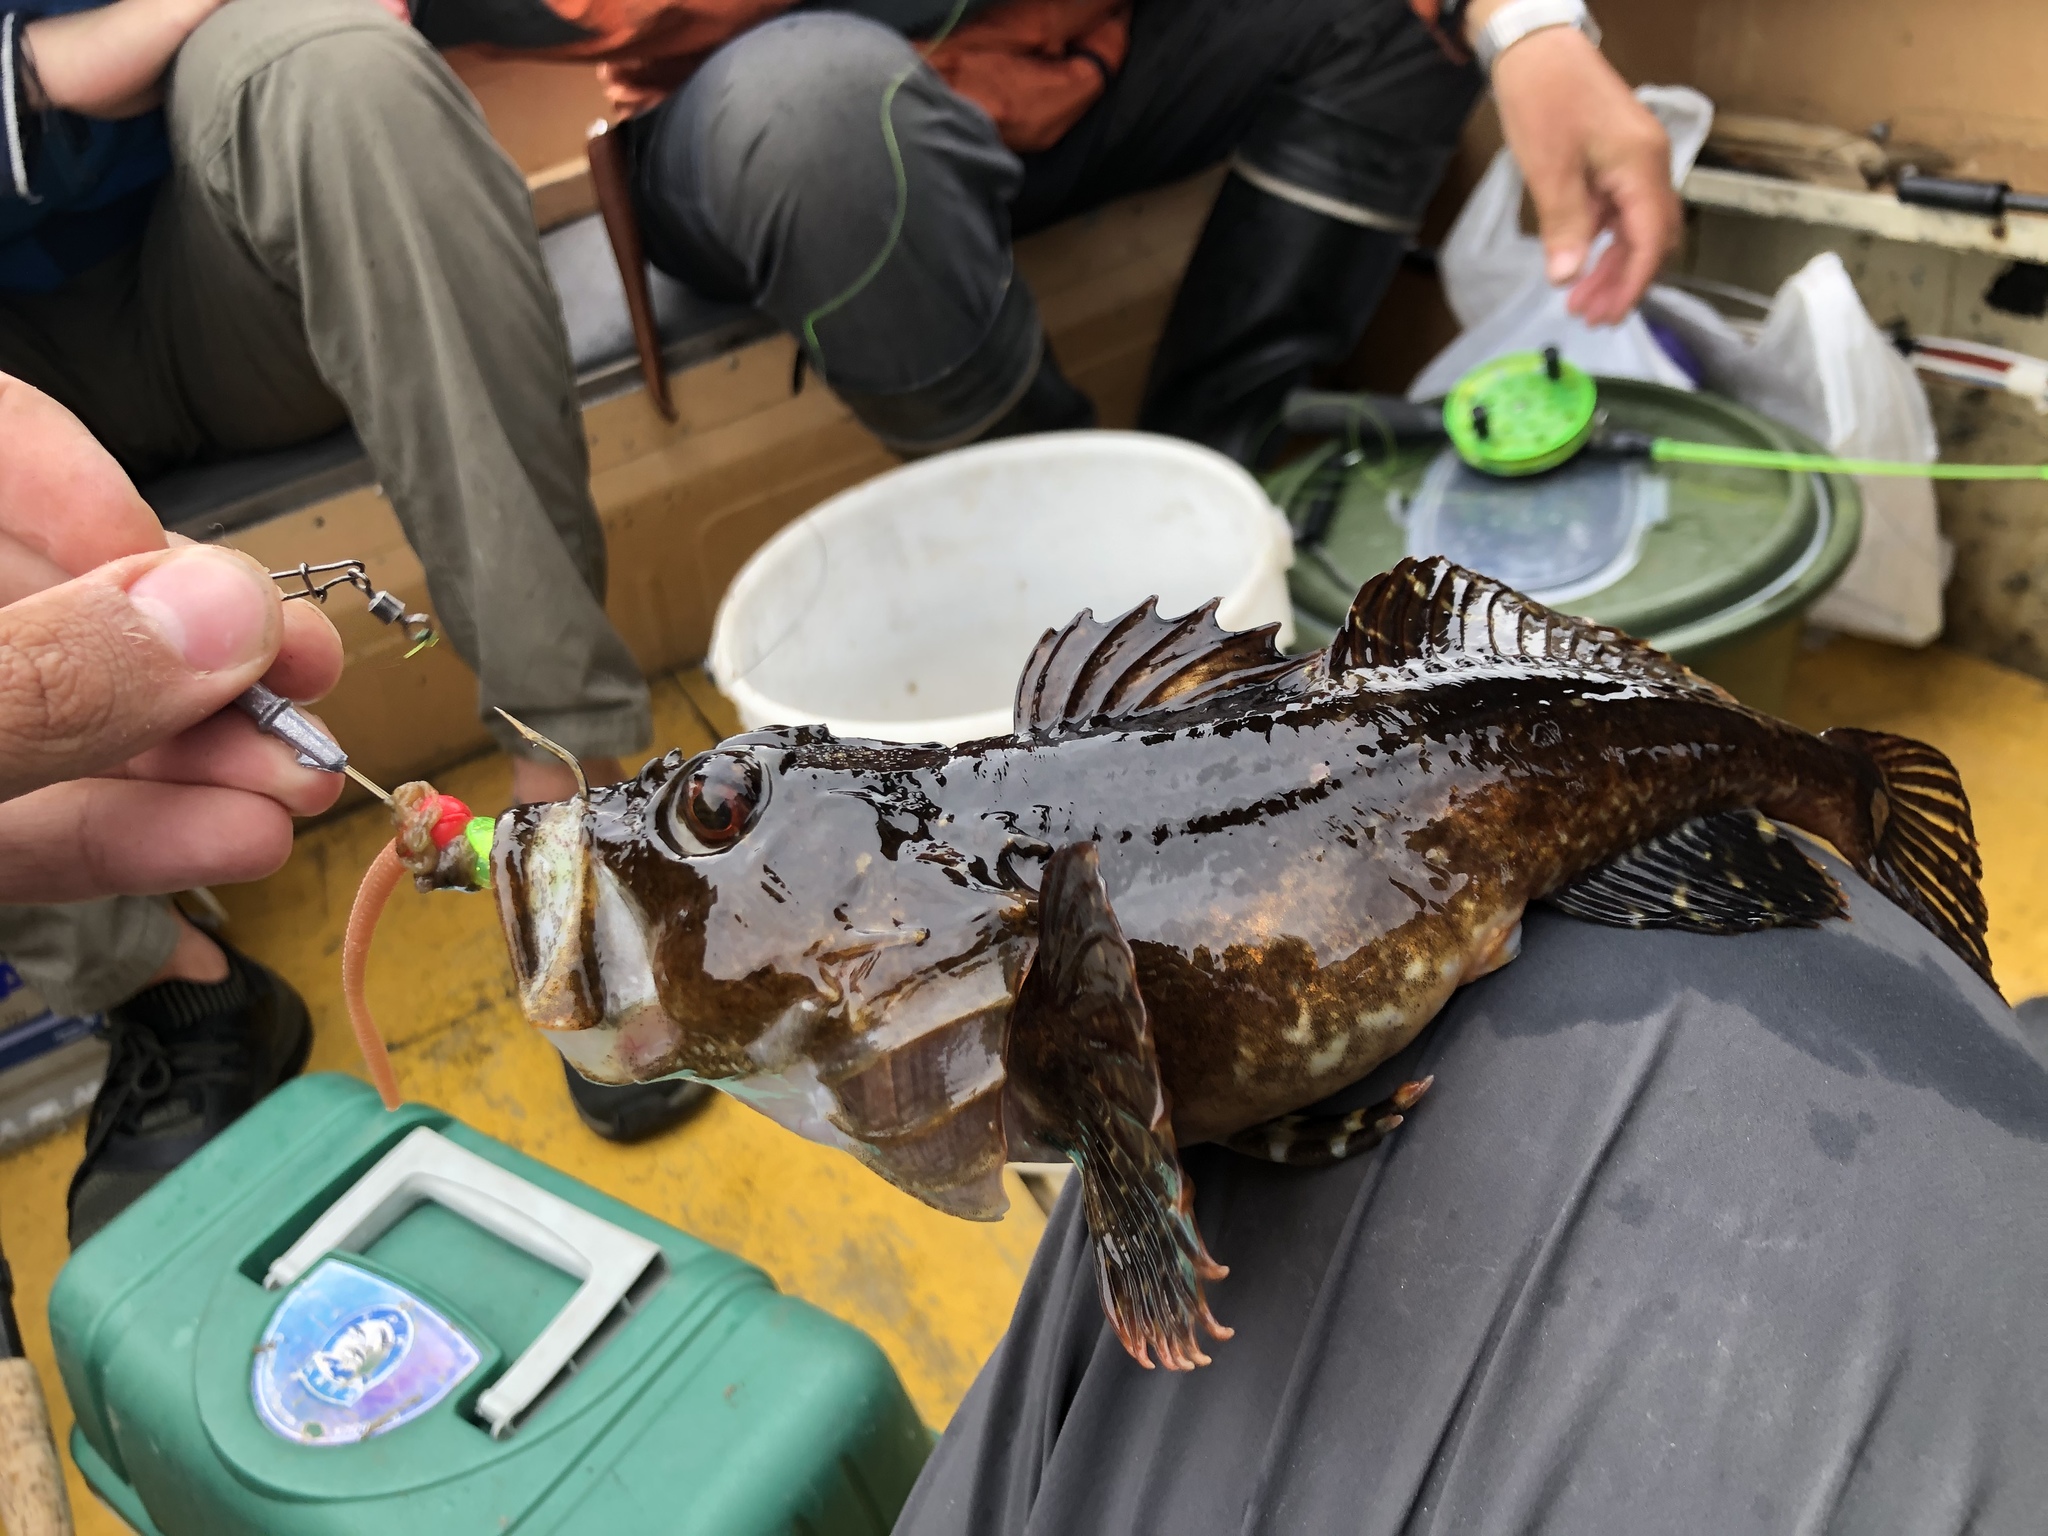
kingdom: Animalia
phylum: Chordata
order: Scorpaeniformes
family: Cottidae
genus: Myoxocephalus
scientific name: Myoxocephalus scorpius
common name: Shorthorn sculpin
